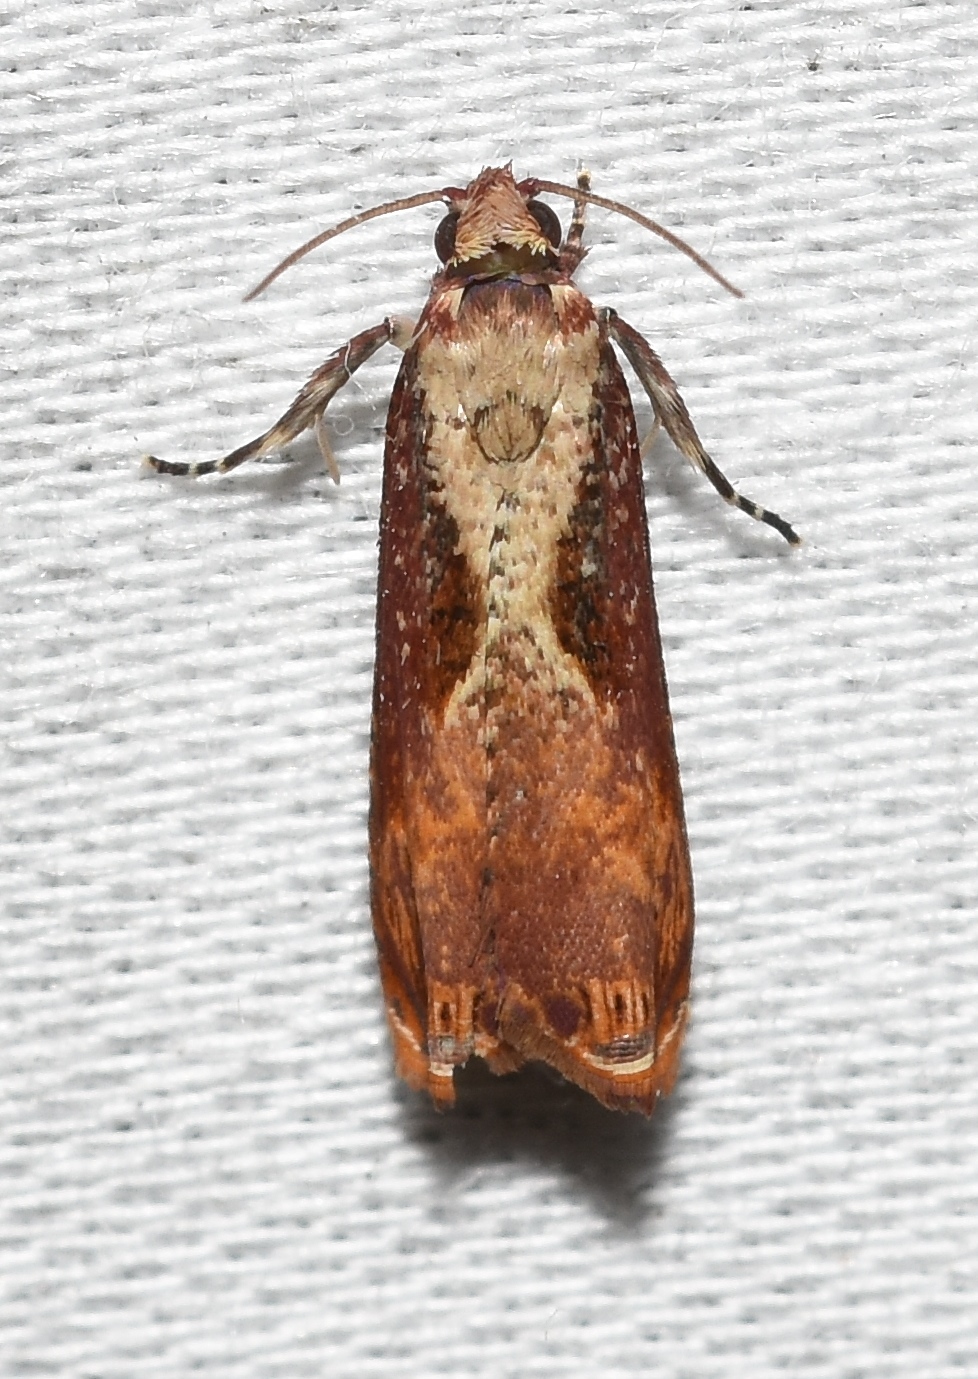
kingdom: Animalia
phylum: Arthropoda
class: Insecta
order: Lepidoptera
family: Tortricidae
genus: Episimus
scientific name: Episimus tyrius
